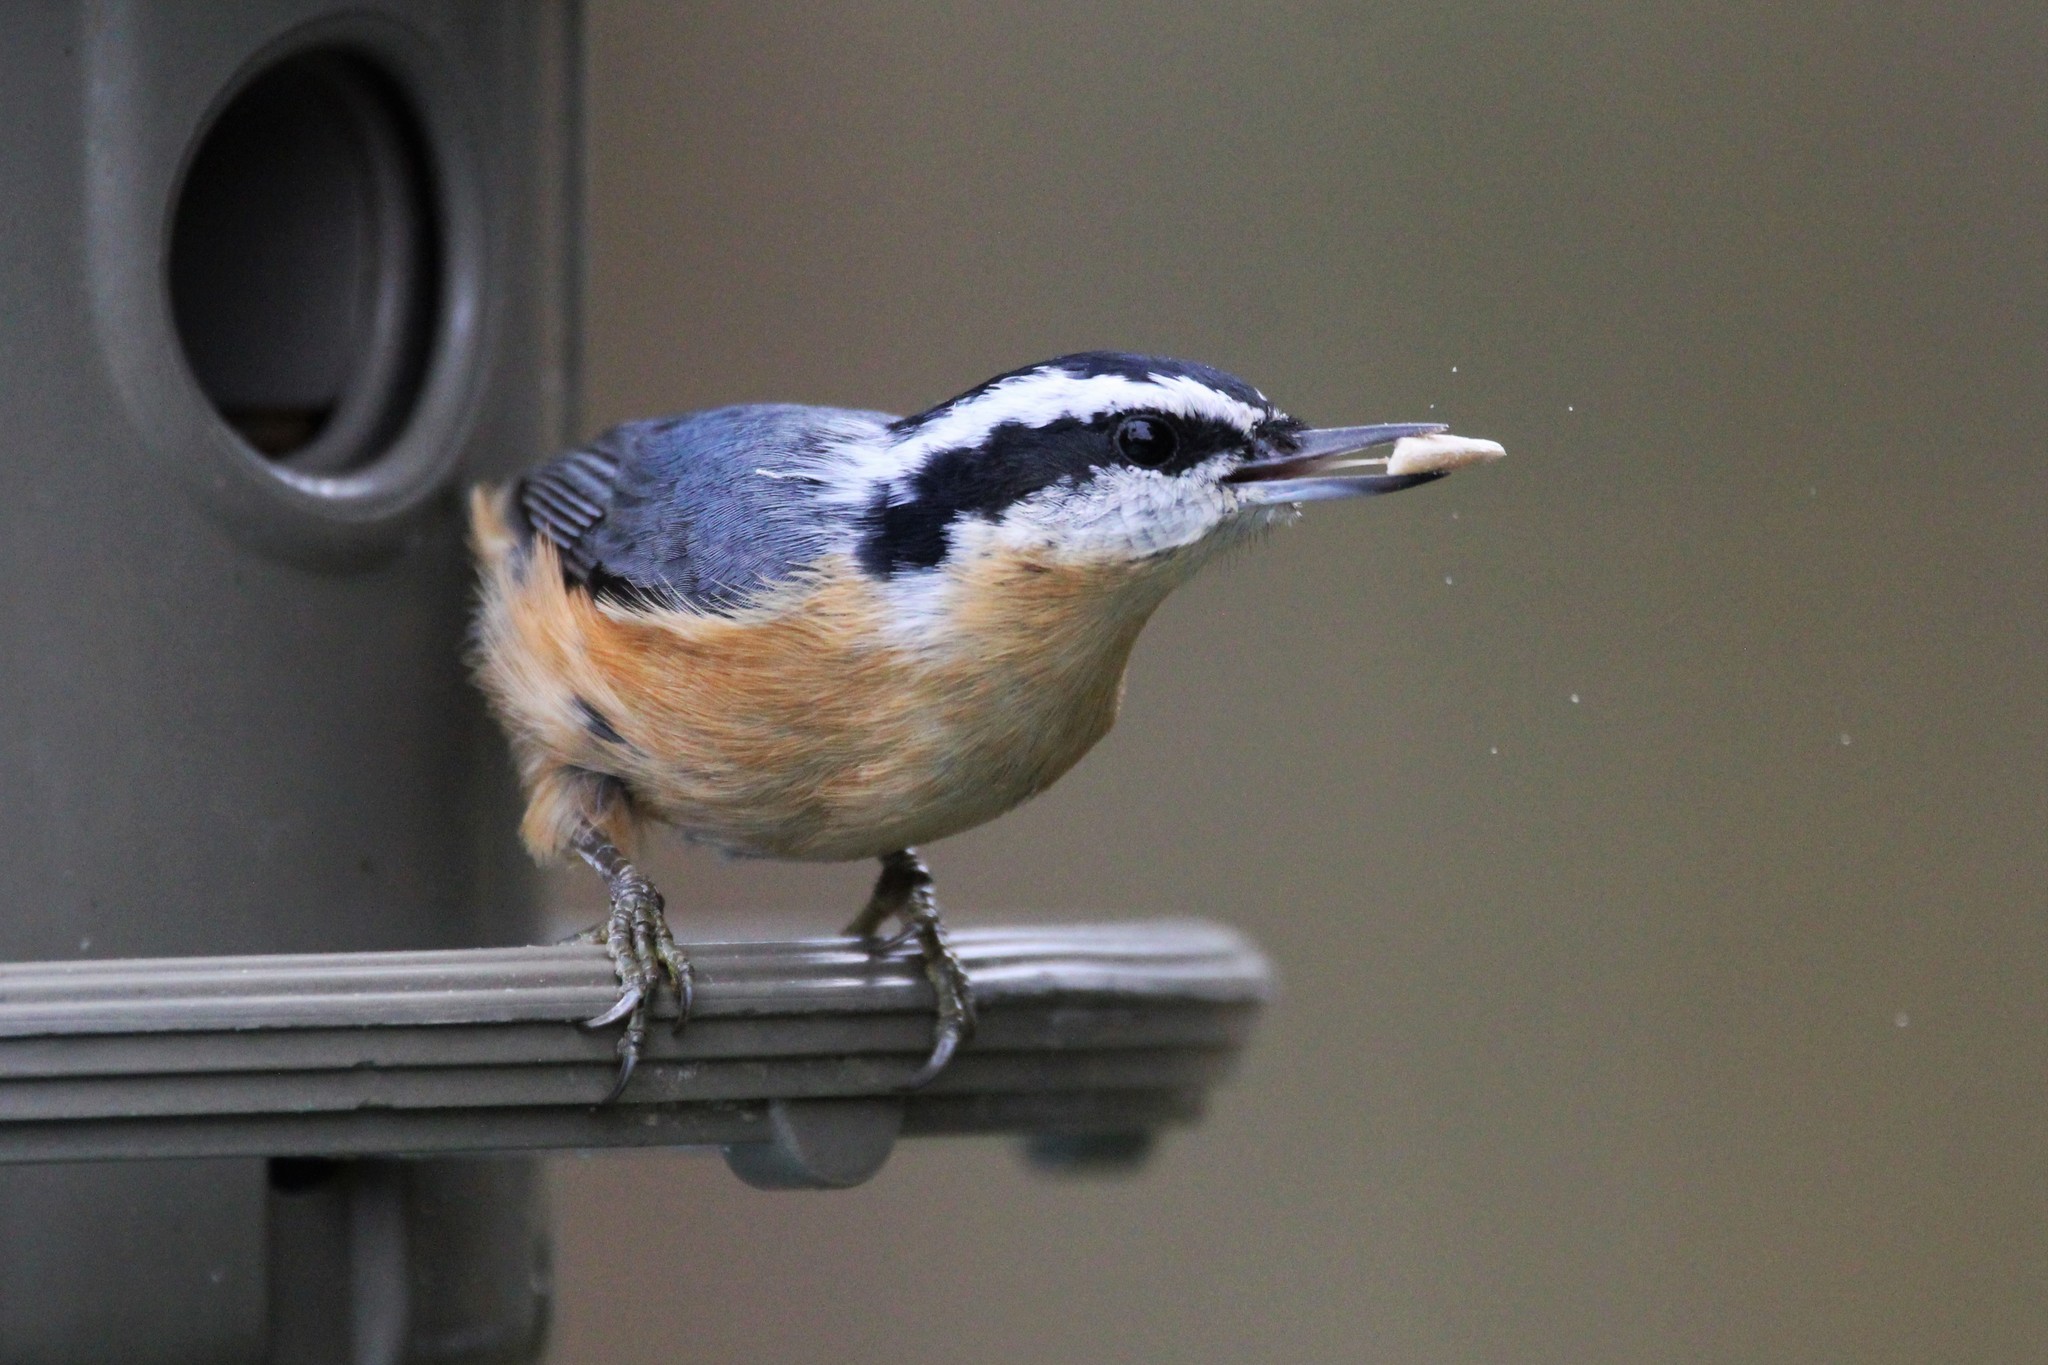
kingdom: Animalia
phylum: Chordata
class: Aves
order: Passeriformes
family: Sittidae
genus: Sitta
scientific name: Sitta canadensis
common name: Red-breasted nuthatch
